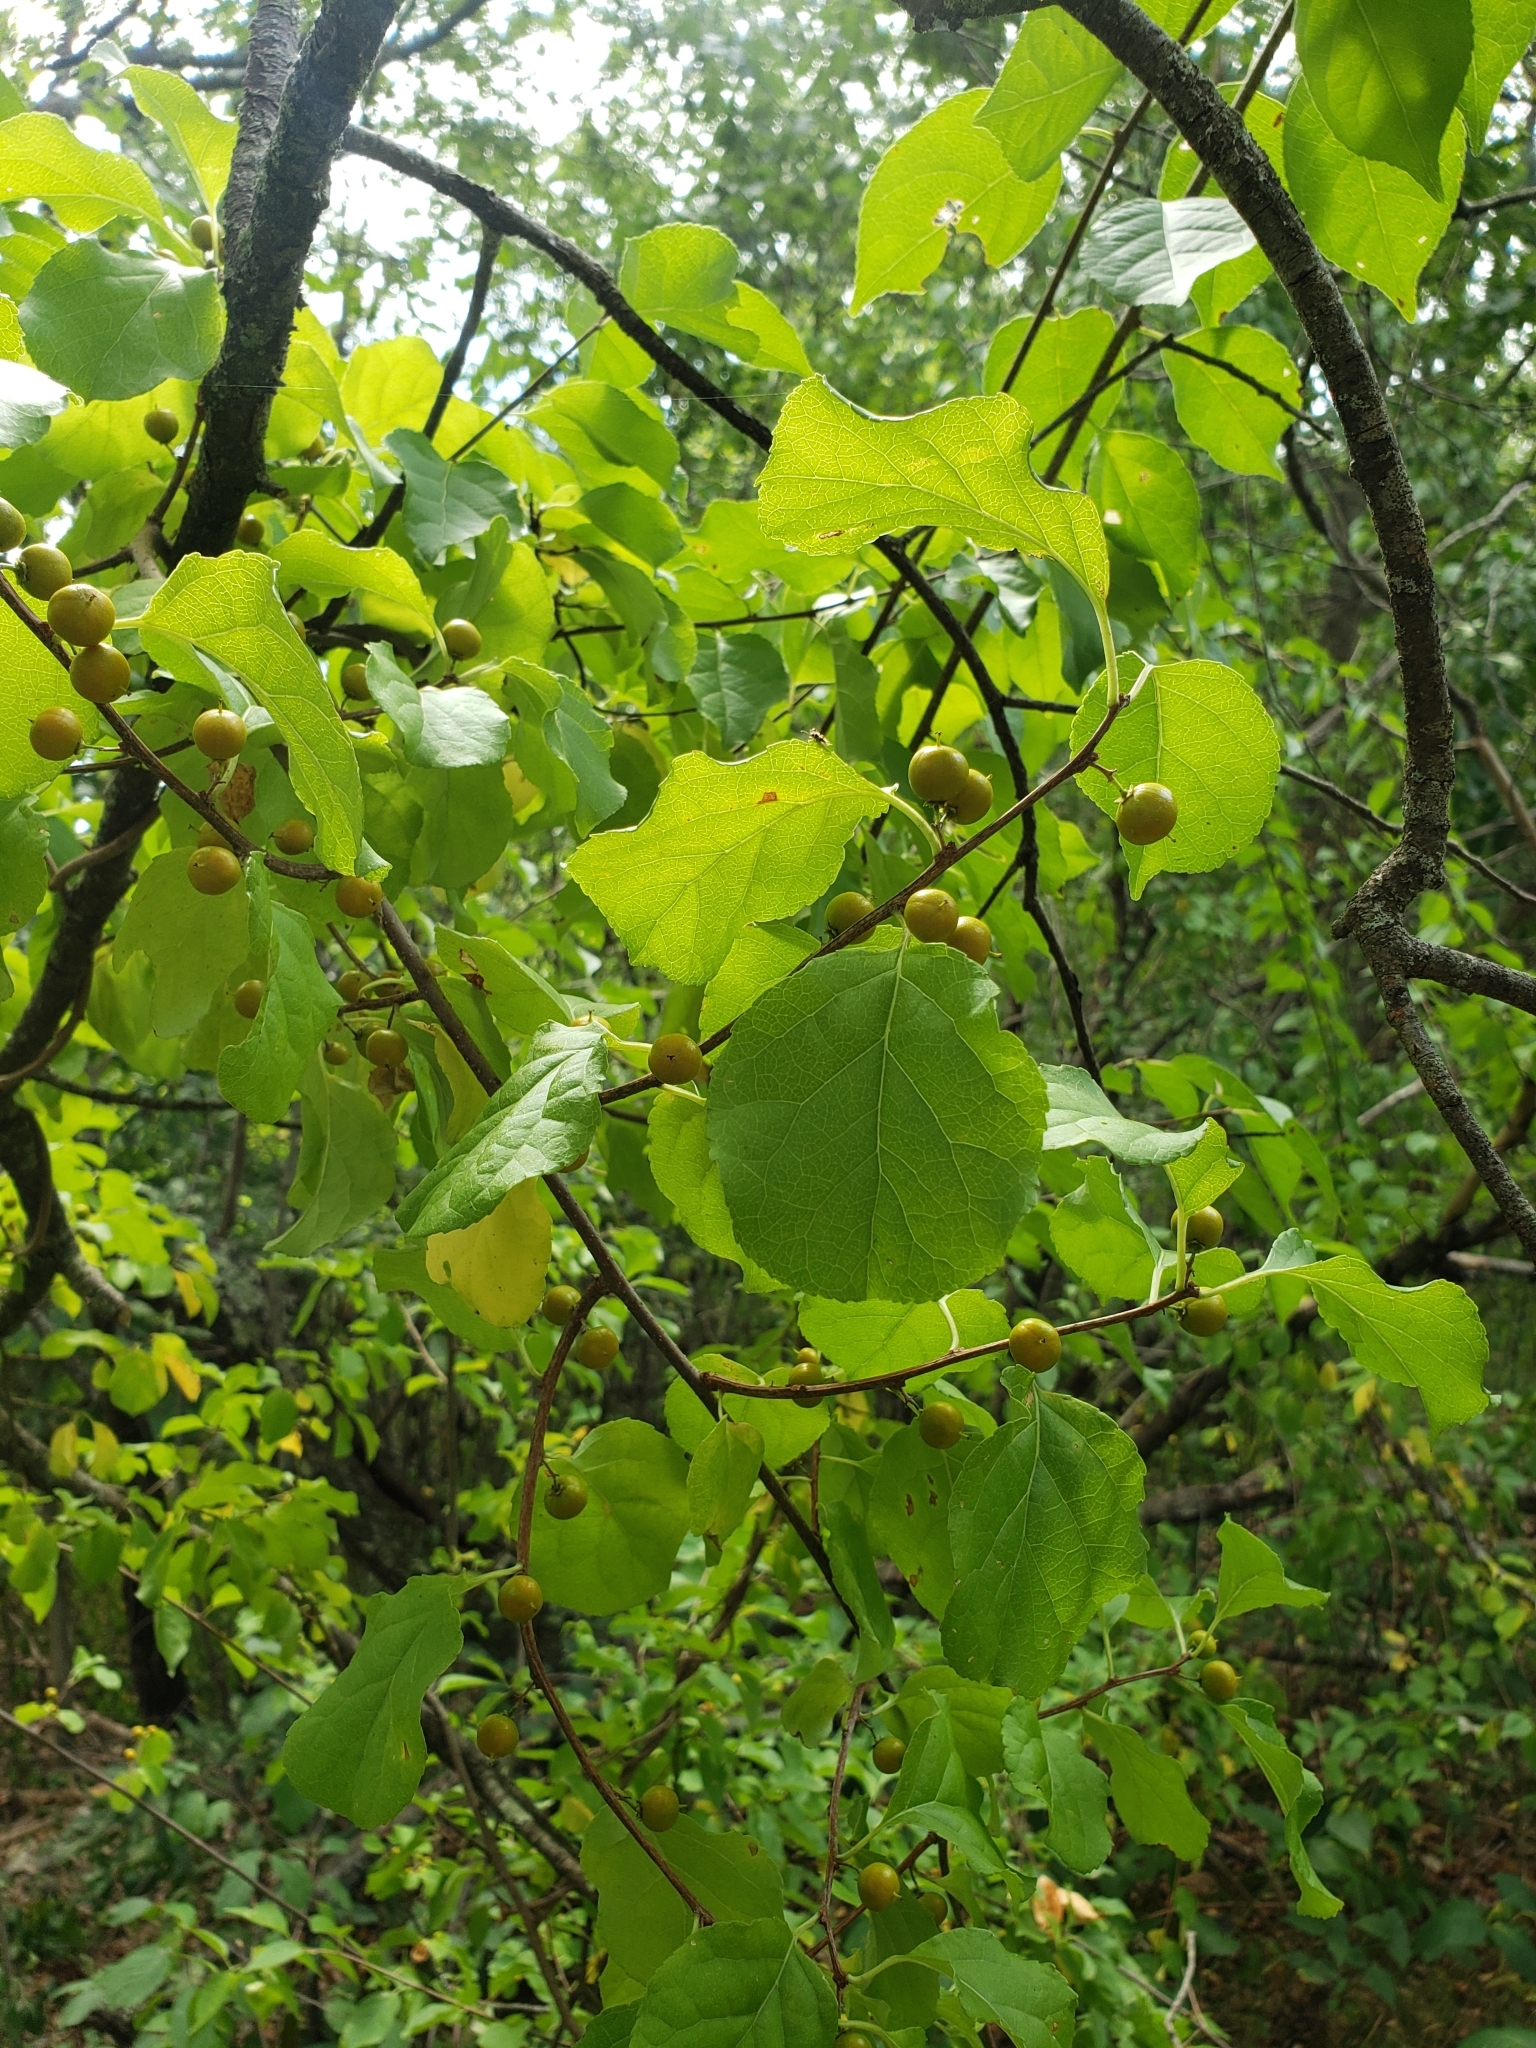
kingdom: Plantae
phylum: Tracheophyta
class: Magnoliopsida
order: Celastrales
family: Celastraceae
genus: Celastrus
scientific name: Celastrus orbiculatus
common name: Oriental bittersweet
